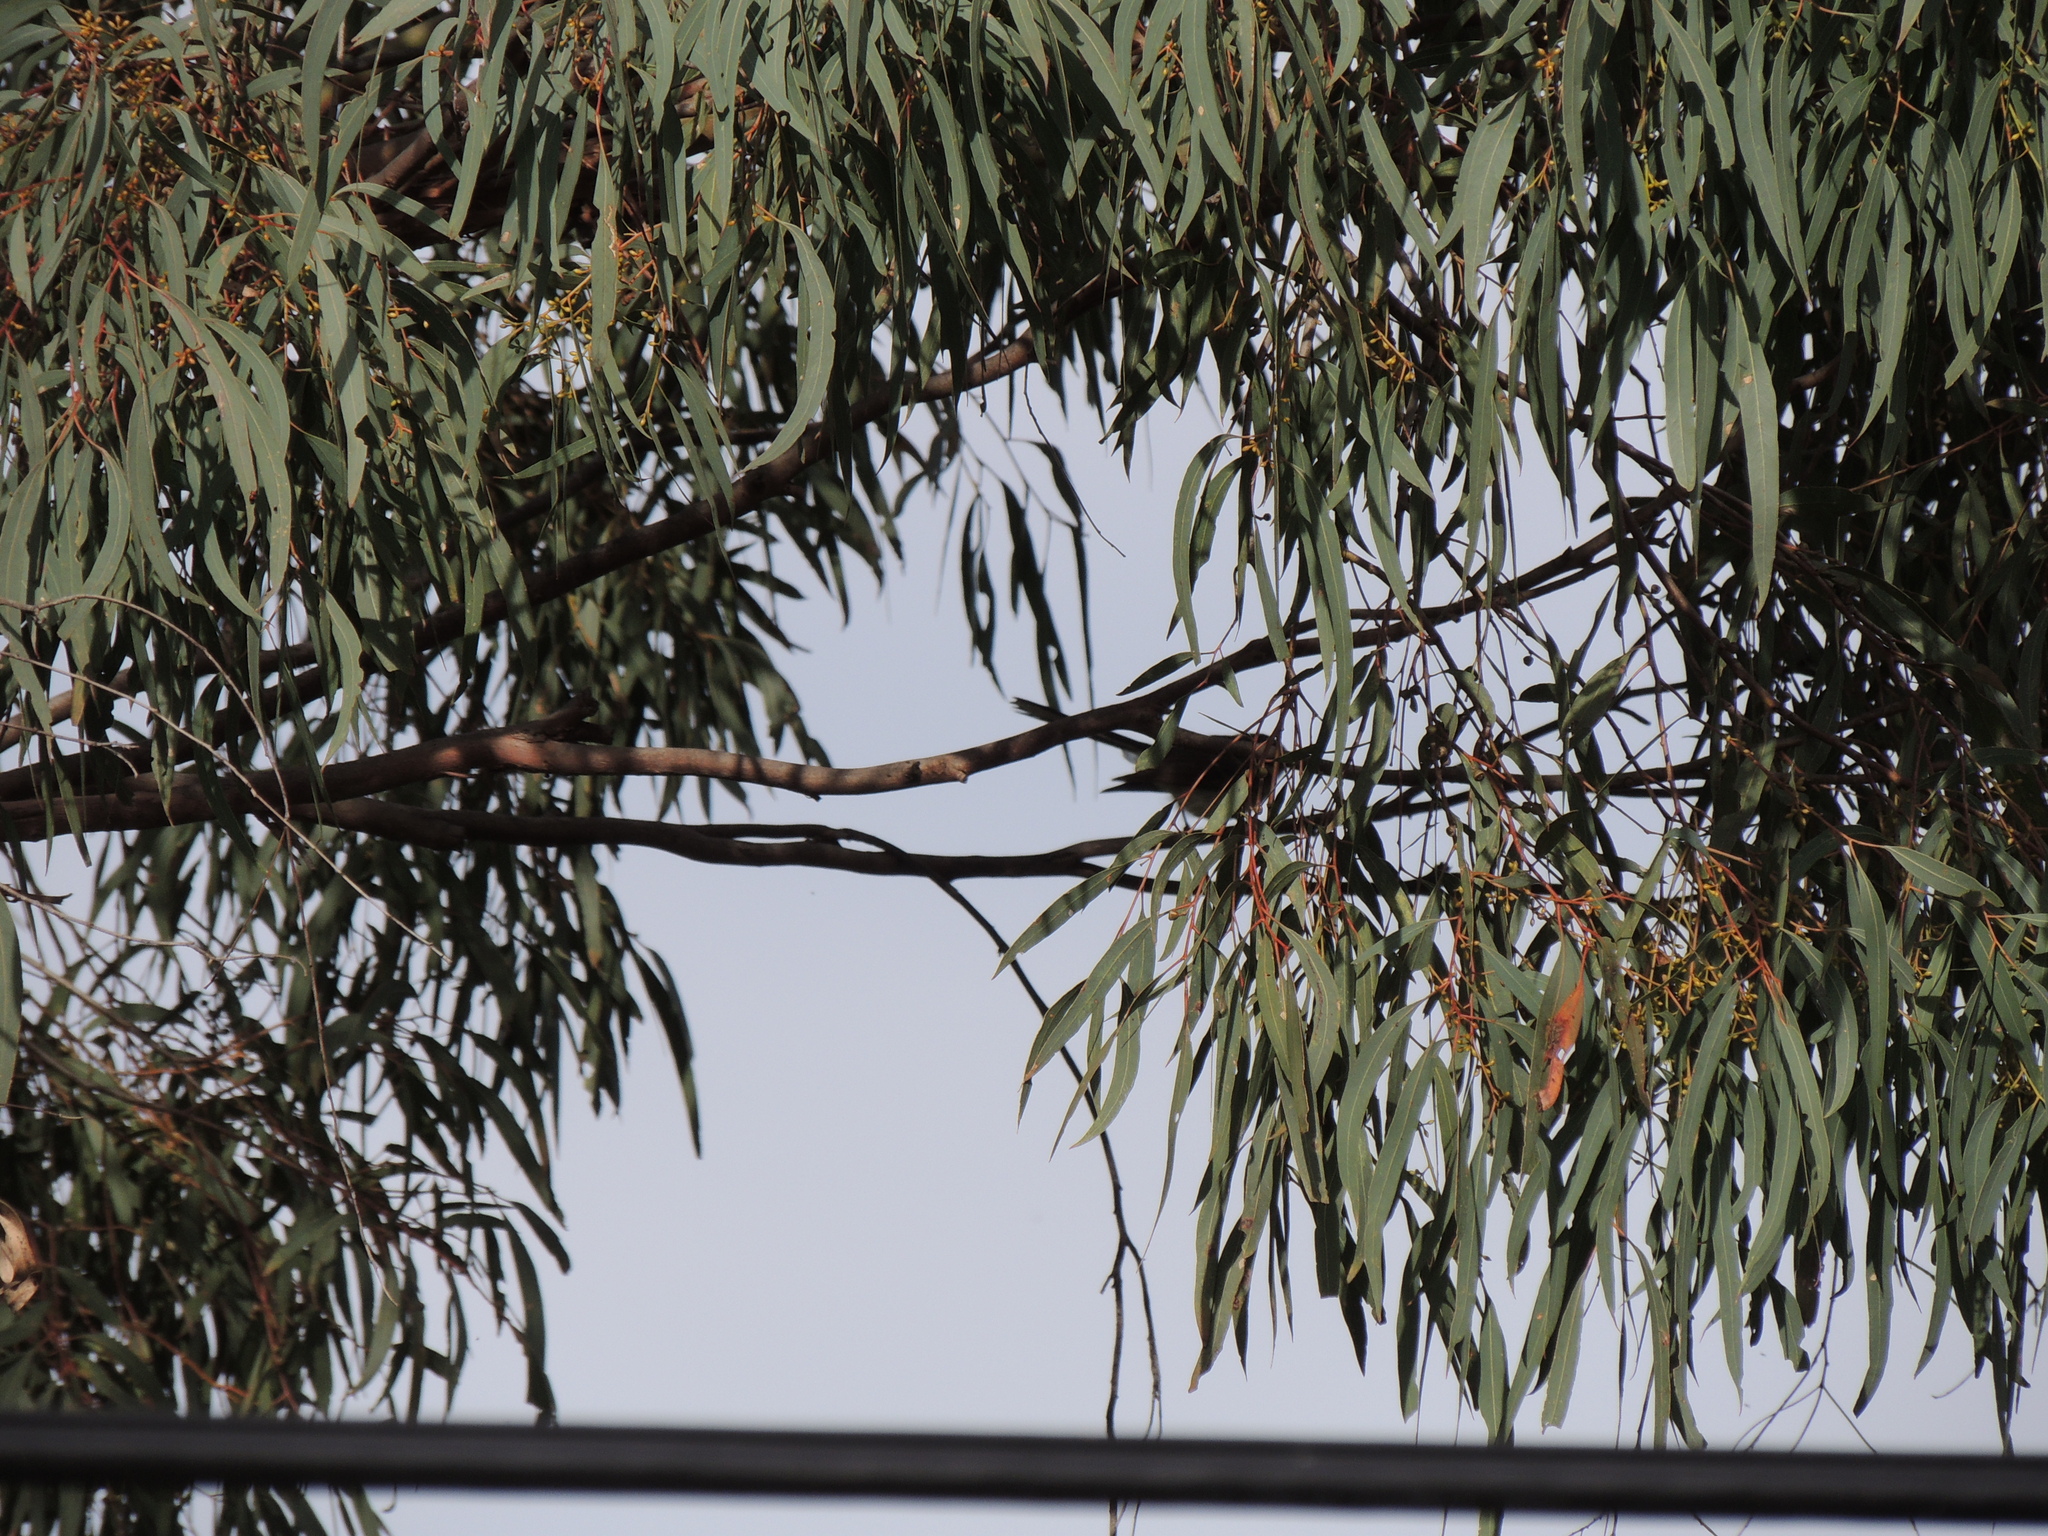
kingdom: Animalia
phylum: Chordata
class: Aves
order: Passeriformes
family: Rhipiduridae
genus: Rhipidura
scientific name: Rhipidura albiscapa
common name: Grey fantail
